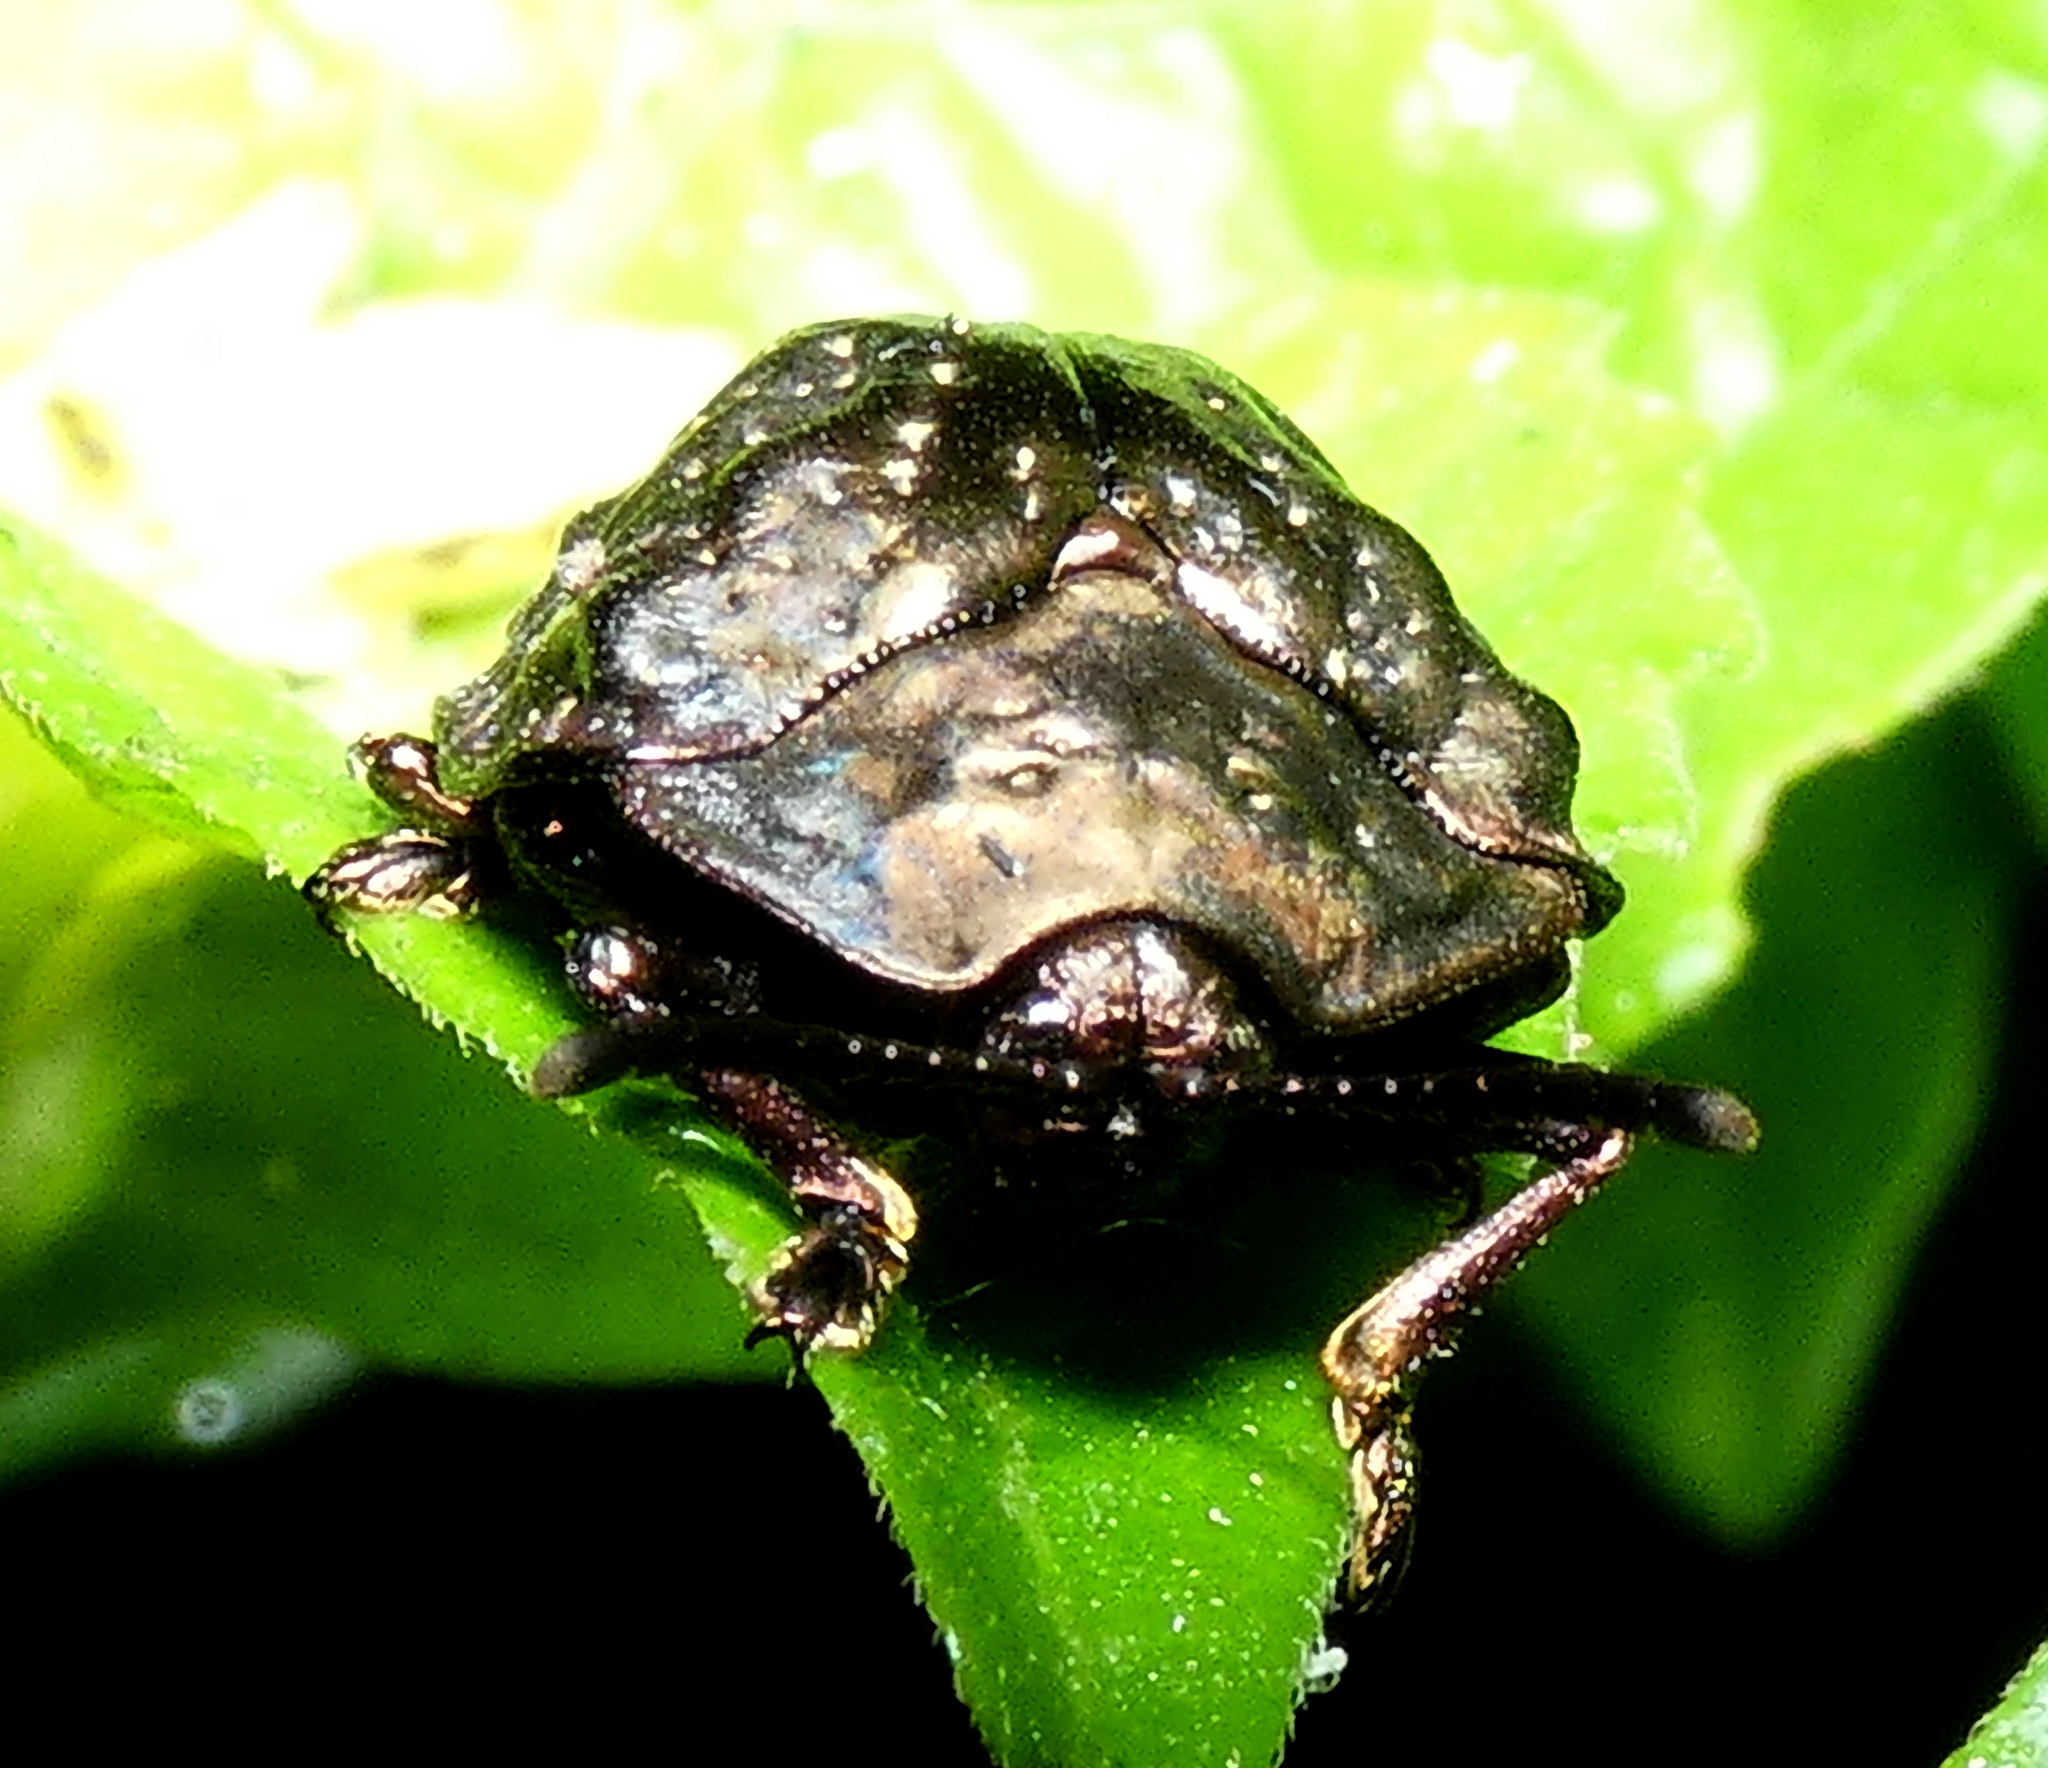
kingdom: Animalia
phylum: Arthropoda
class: Insecta
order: Coleoptera
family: Chrysomelidae
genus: Polychalca
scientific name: Polychalca aerea
